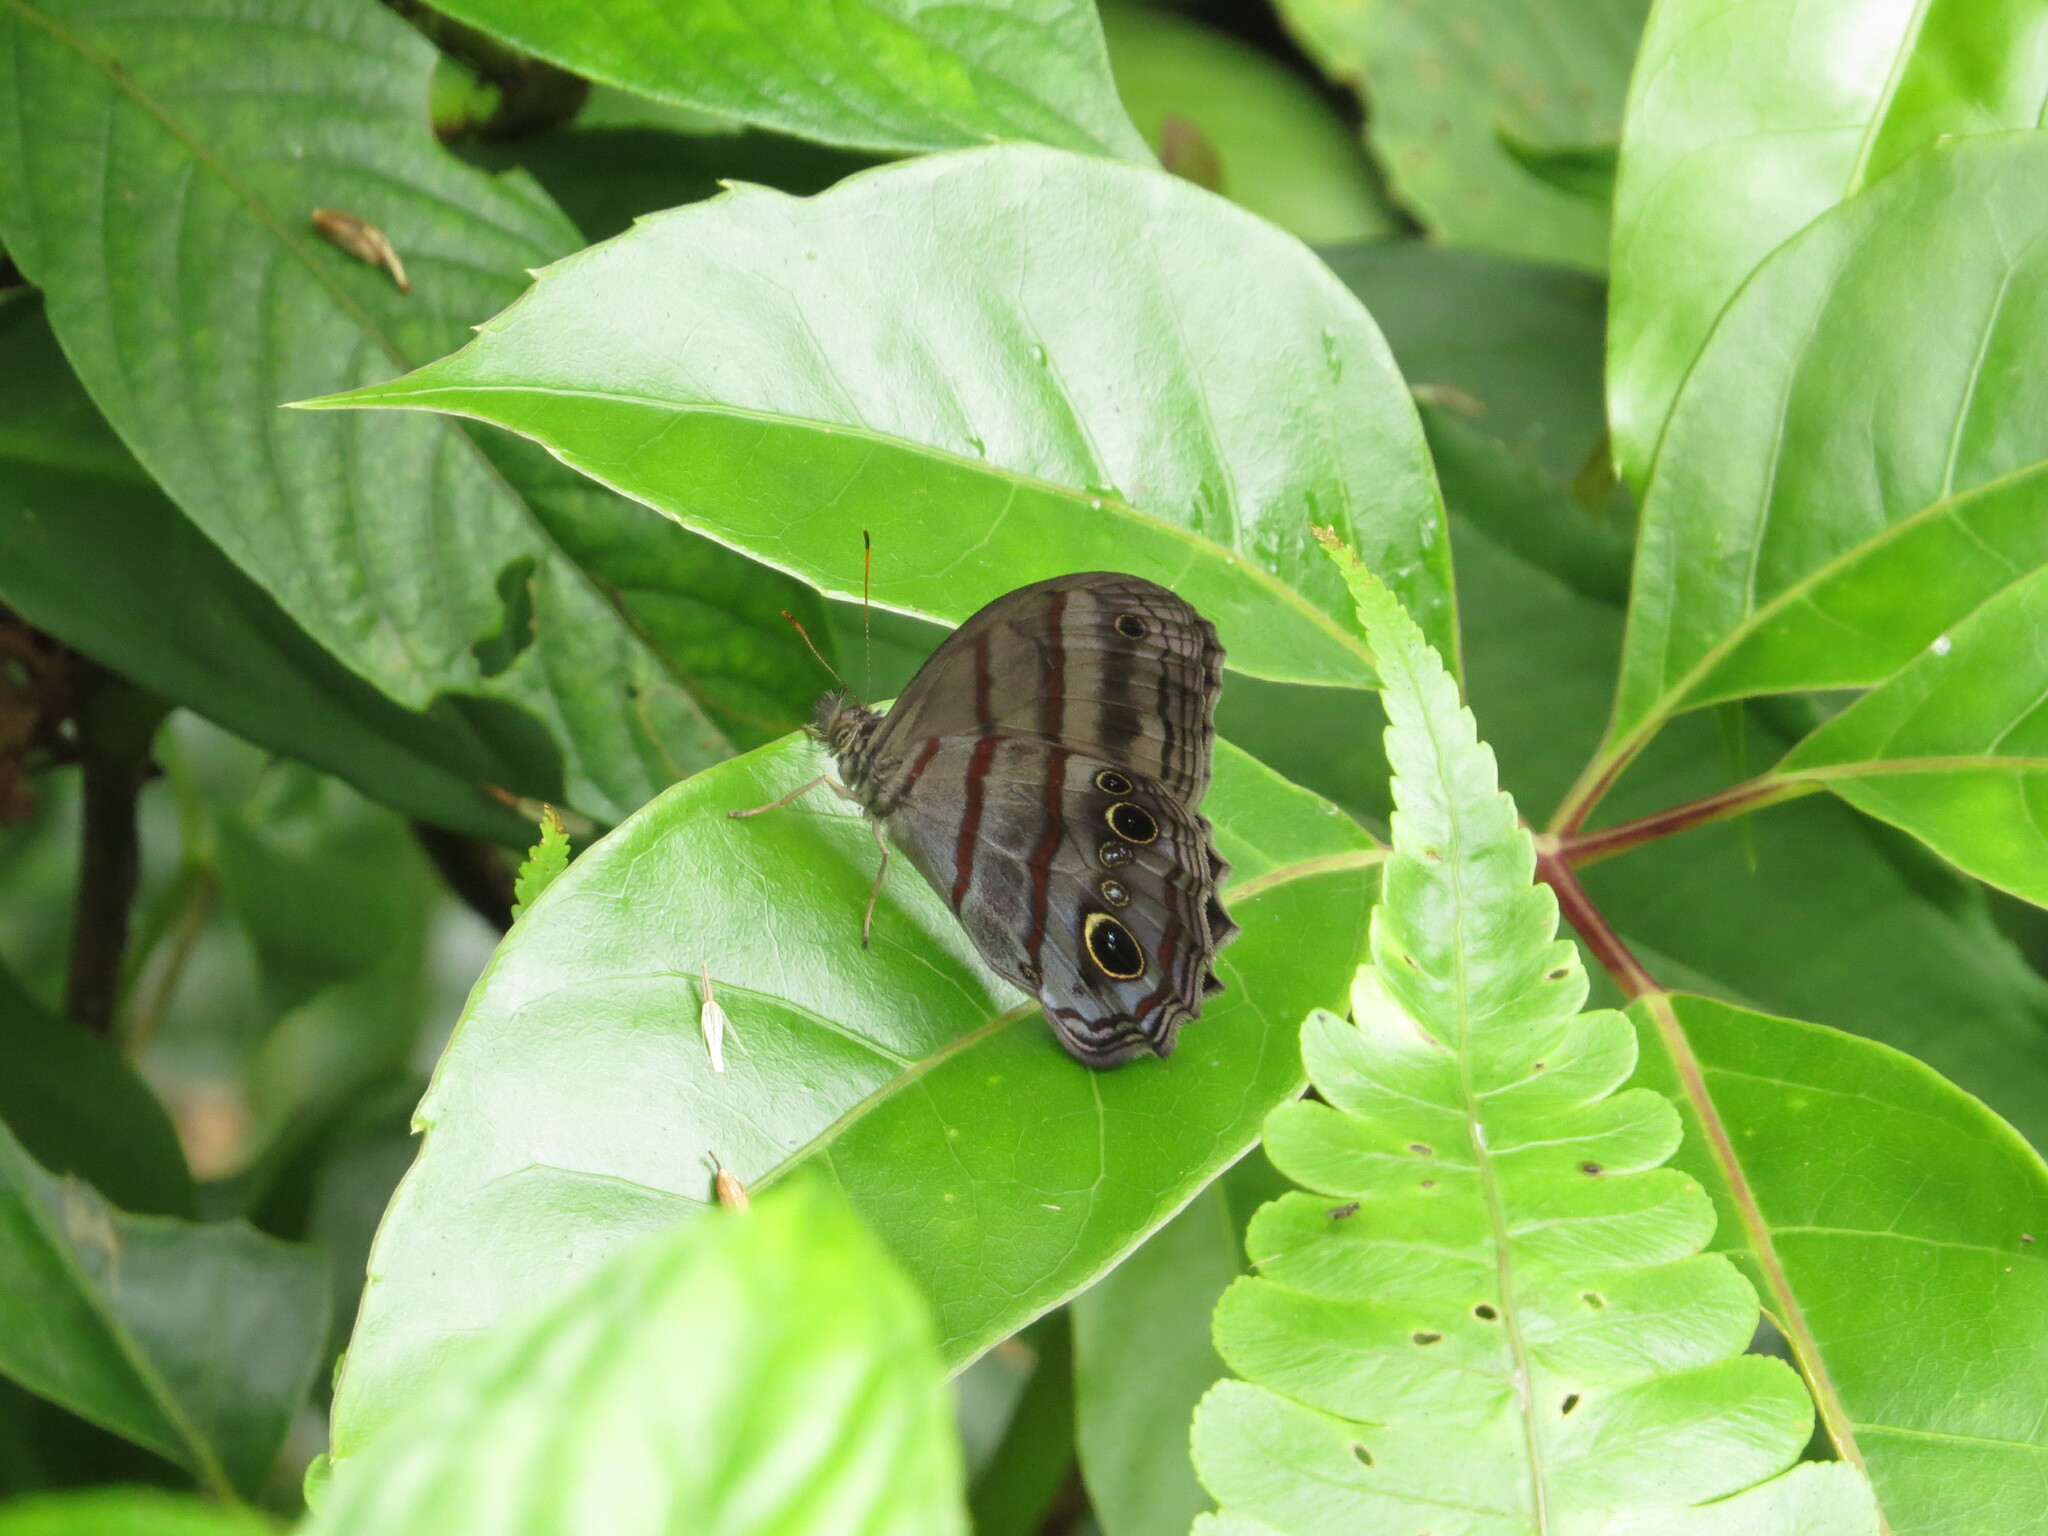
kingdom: Animalia
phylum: Arthropoda
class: Insecta
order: Lepidoptera
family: Nymphalidae
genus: Magneuptychia
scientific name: Magneuptychia libye
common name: Blue-gray satyr
